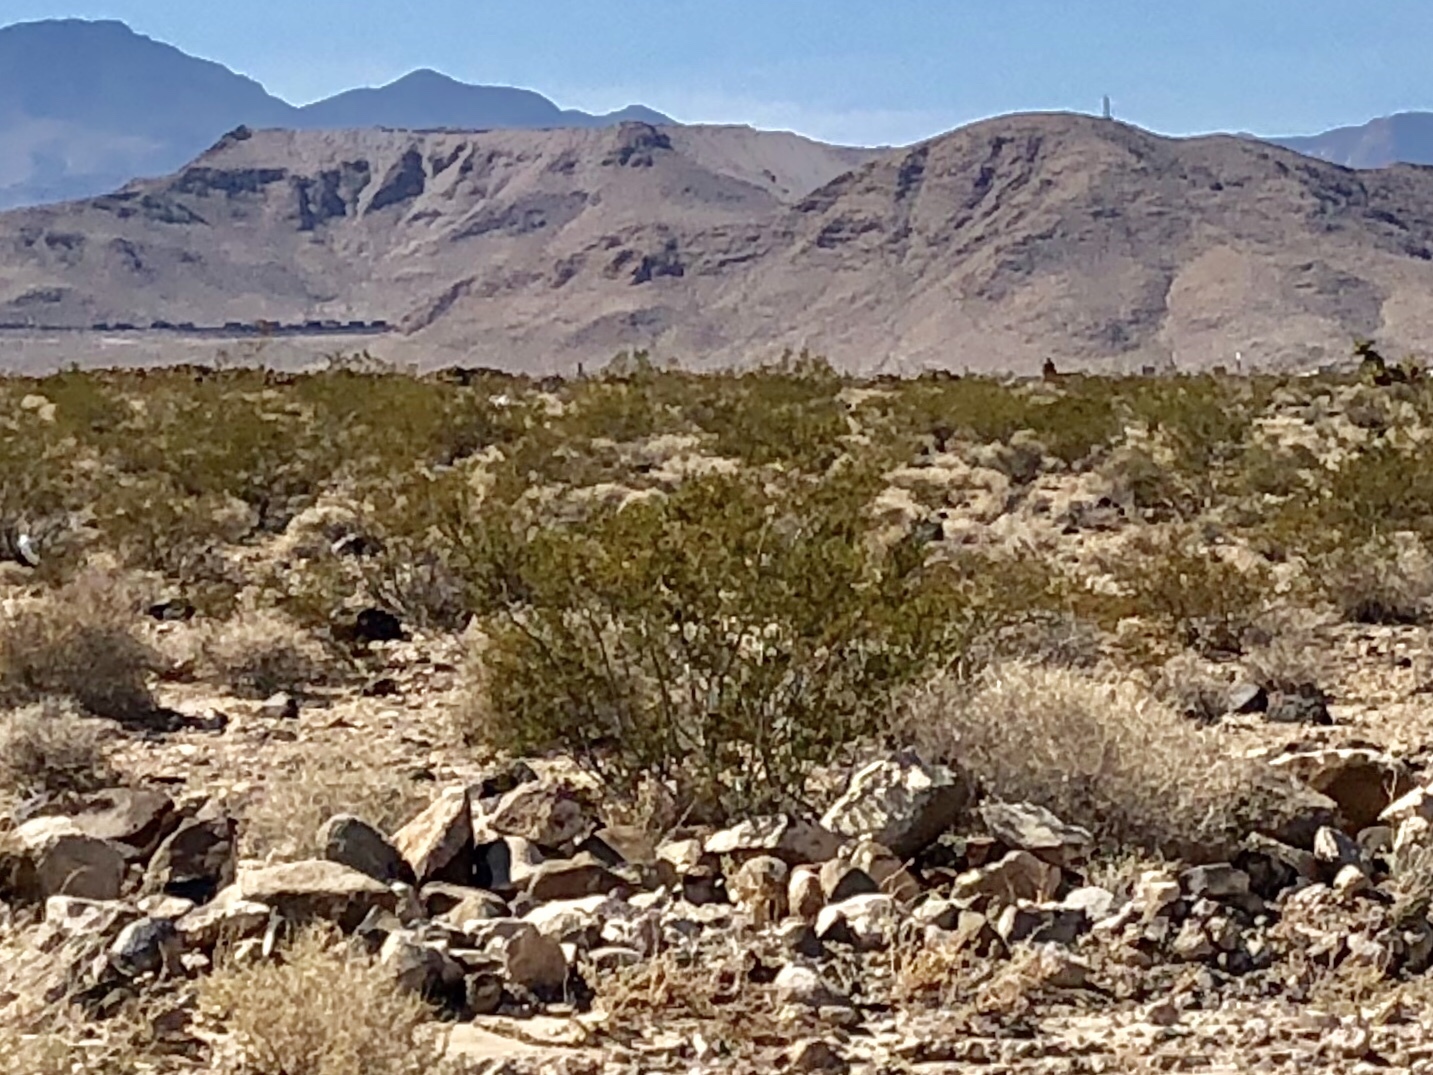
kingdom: Plantae
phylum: Tracheophyta
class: Magnoliopsida
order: Zygophyllales
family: Zygophyllaceae
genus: Larrea
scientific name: Larrea tridentata
